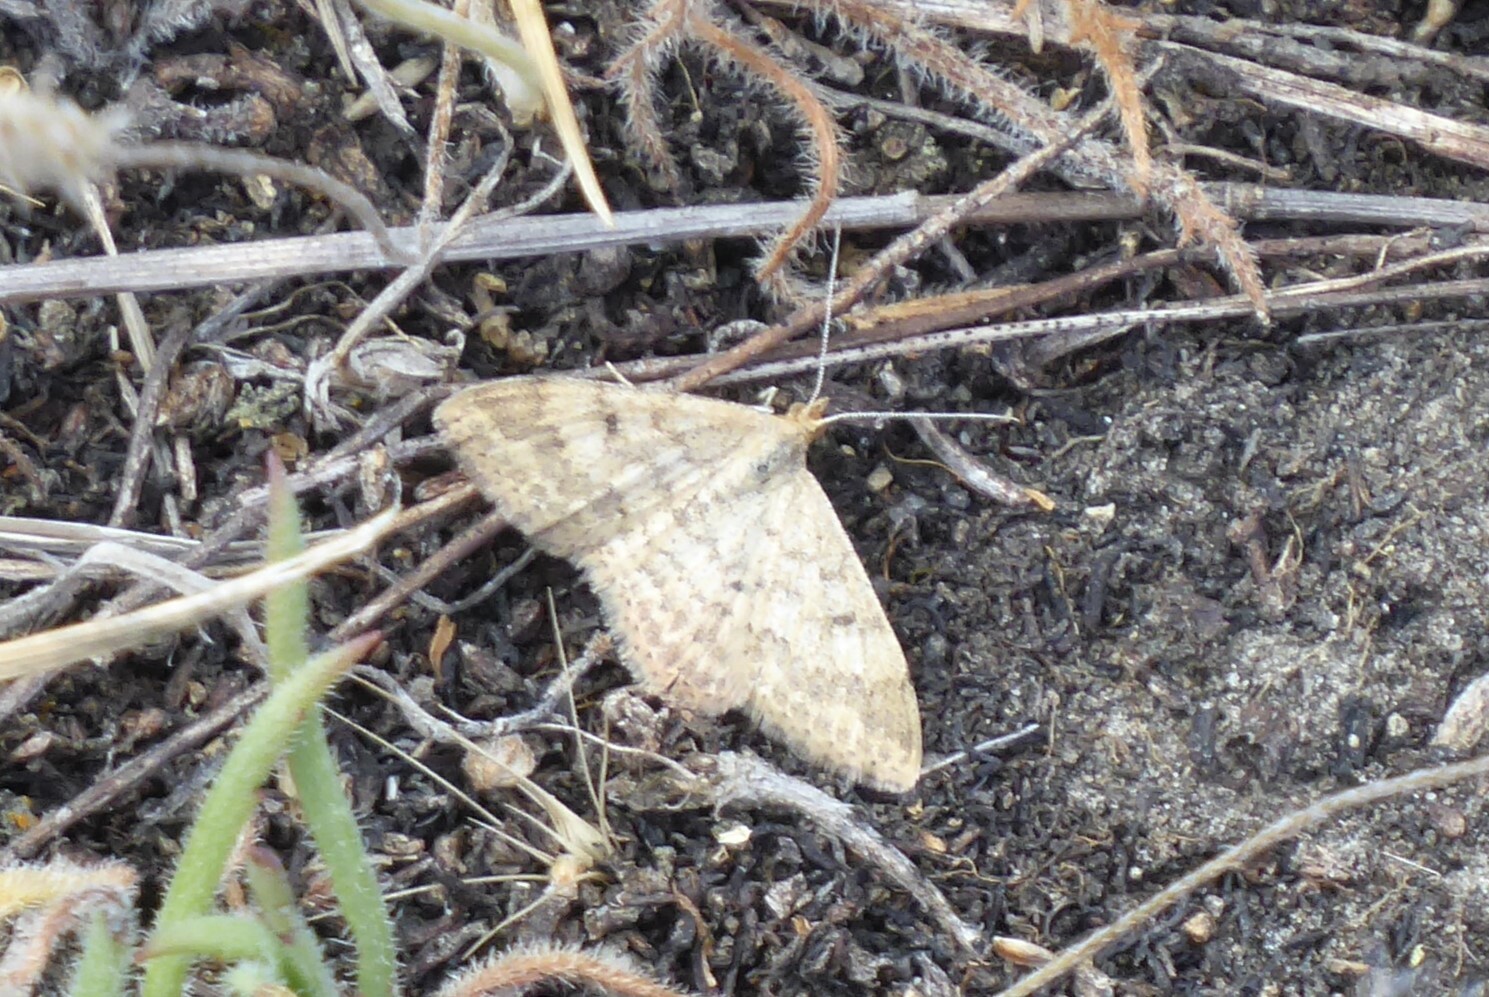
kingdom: Animalia
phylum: Arthropoda
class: Insecta
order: Lepidoptera
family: Geometridae
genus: Scopula
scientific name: Scopula rubraria
